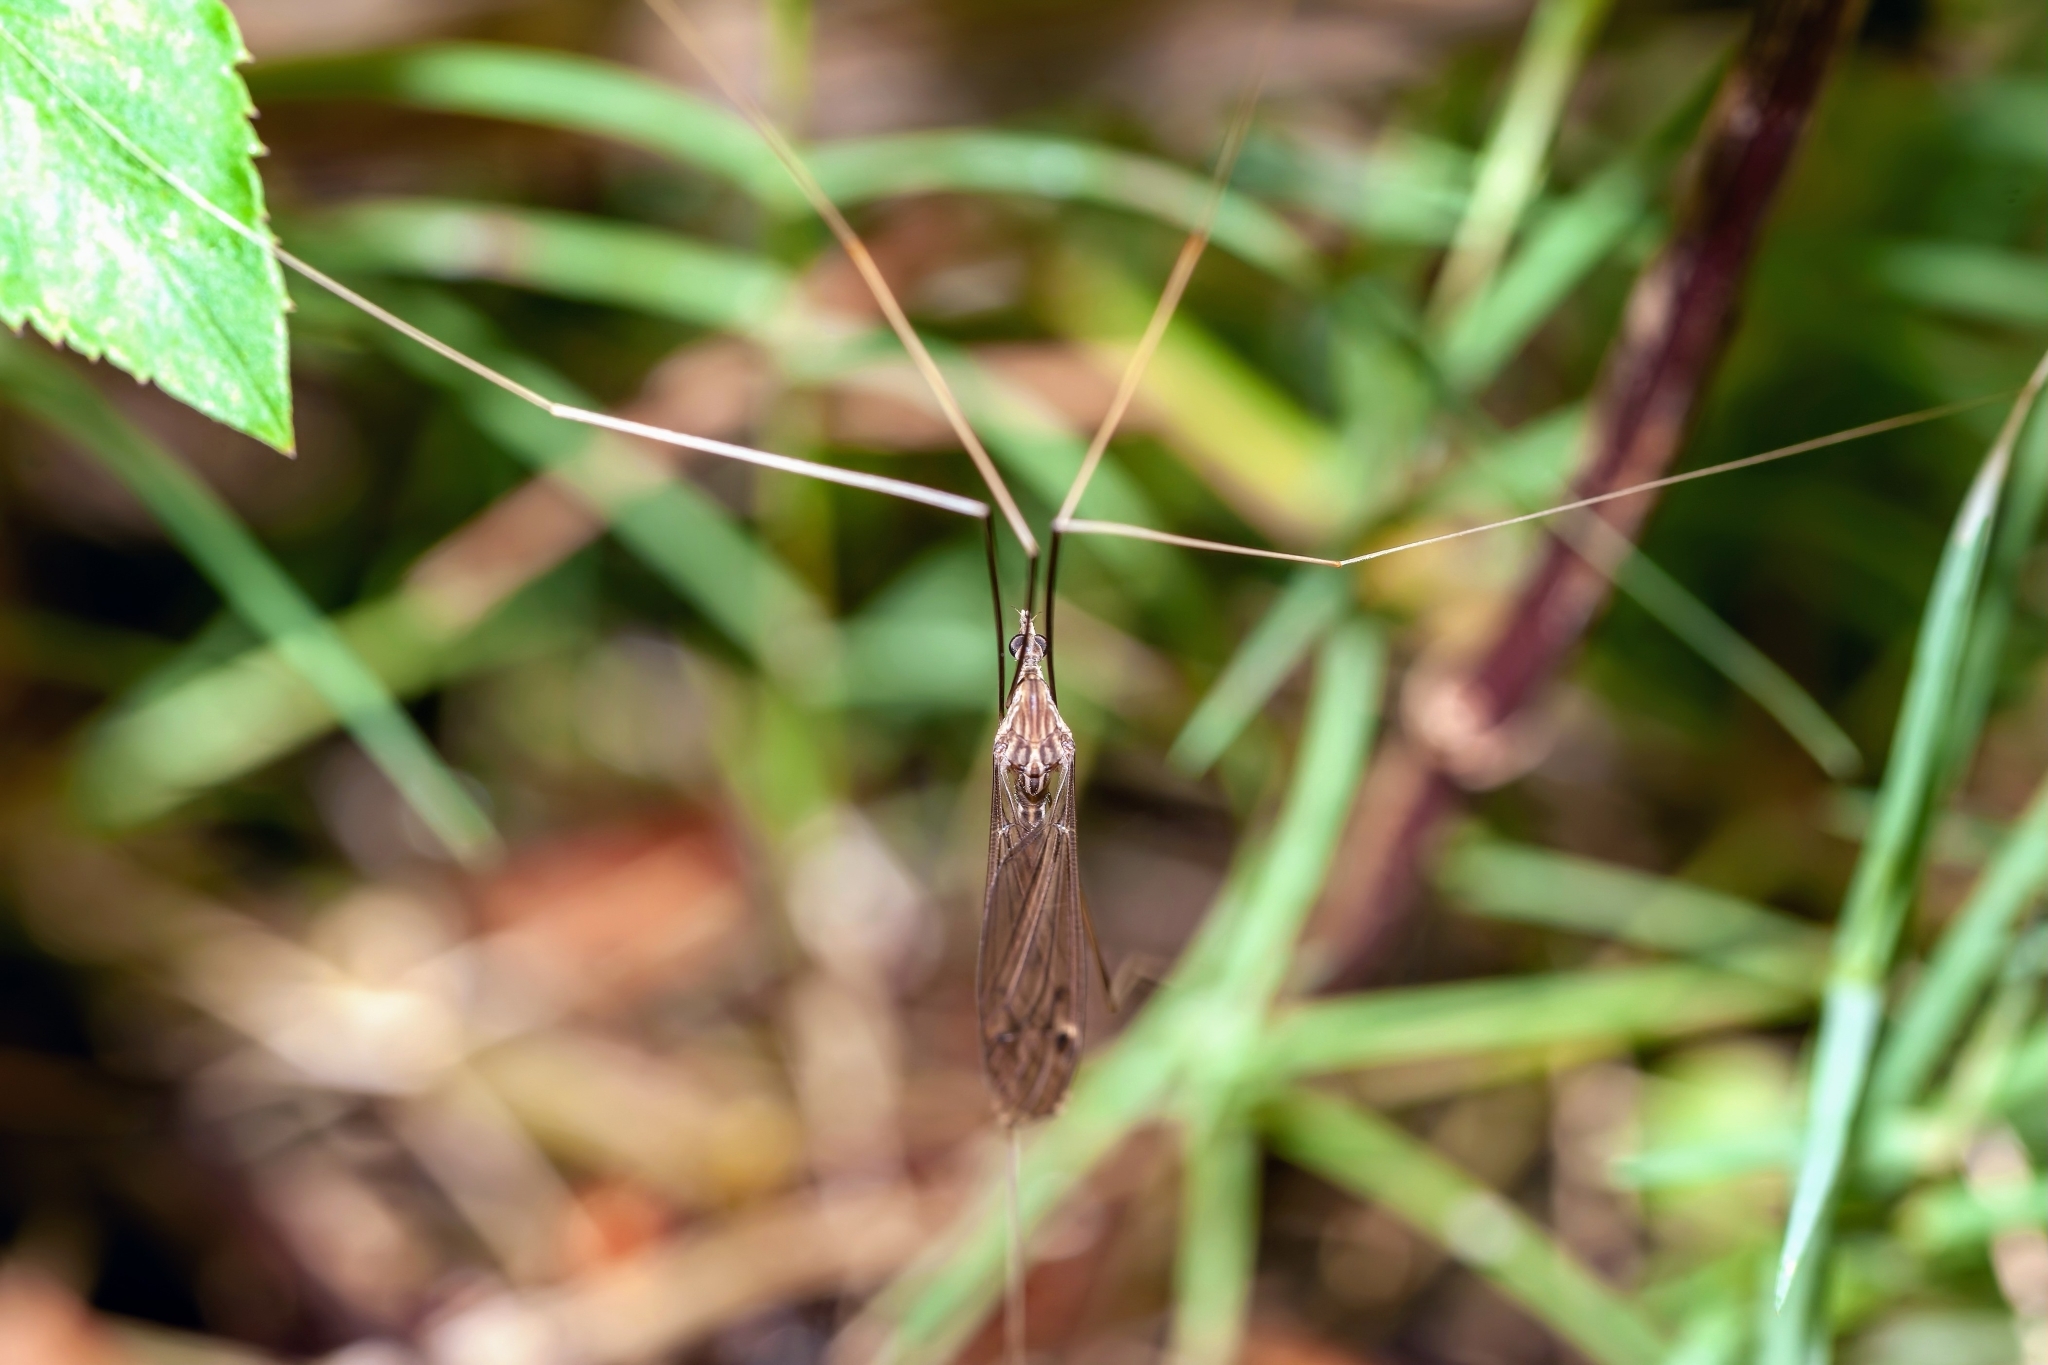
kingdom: Animalia
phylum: Arthropoda
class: Insecta
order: Diptera
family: Tipulidae
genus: Brachypremna
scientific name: Brachypremna dispellens
